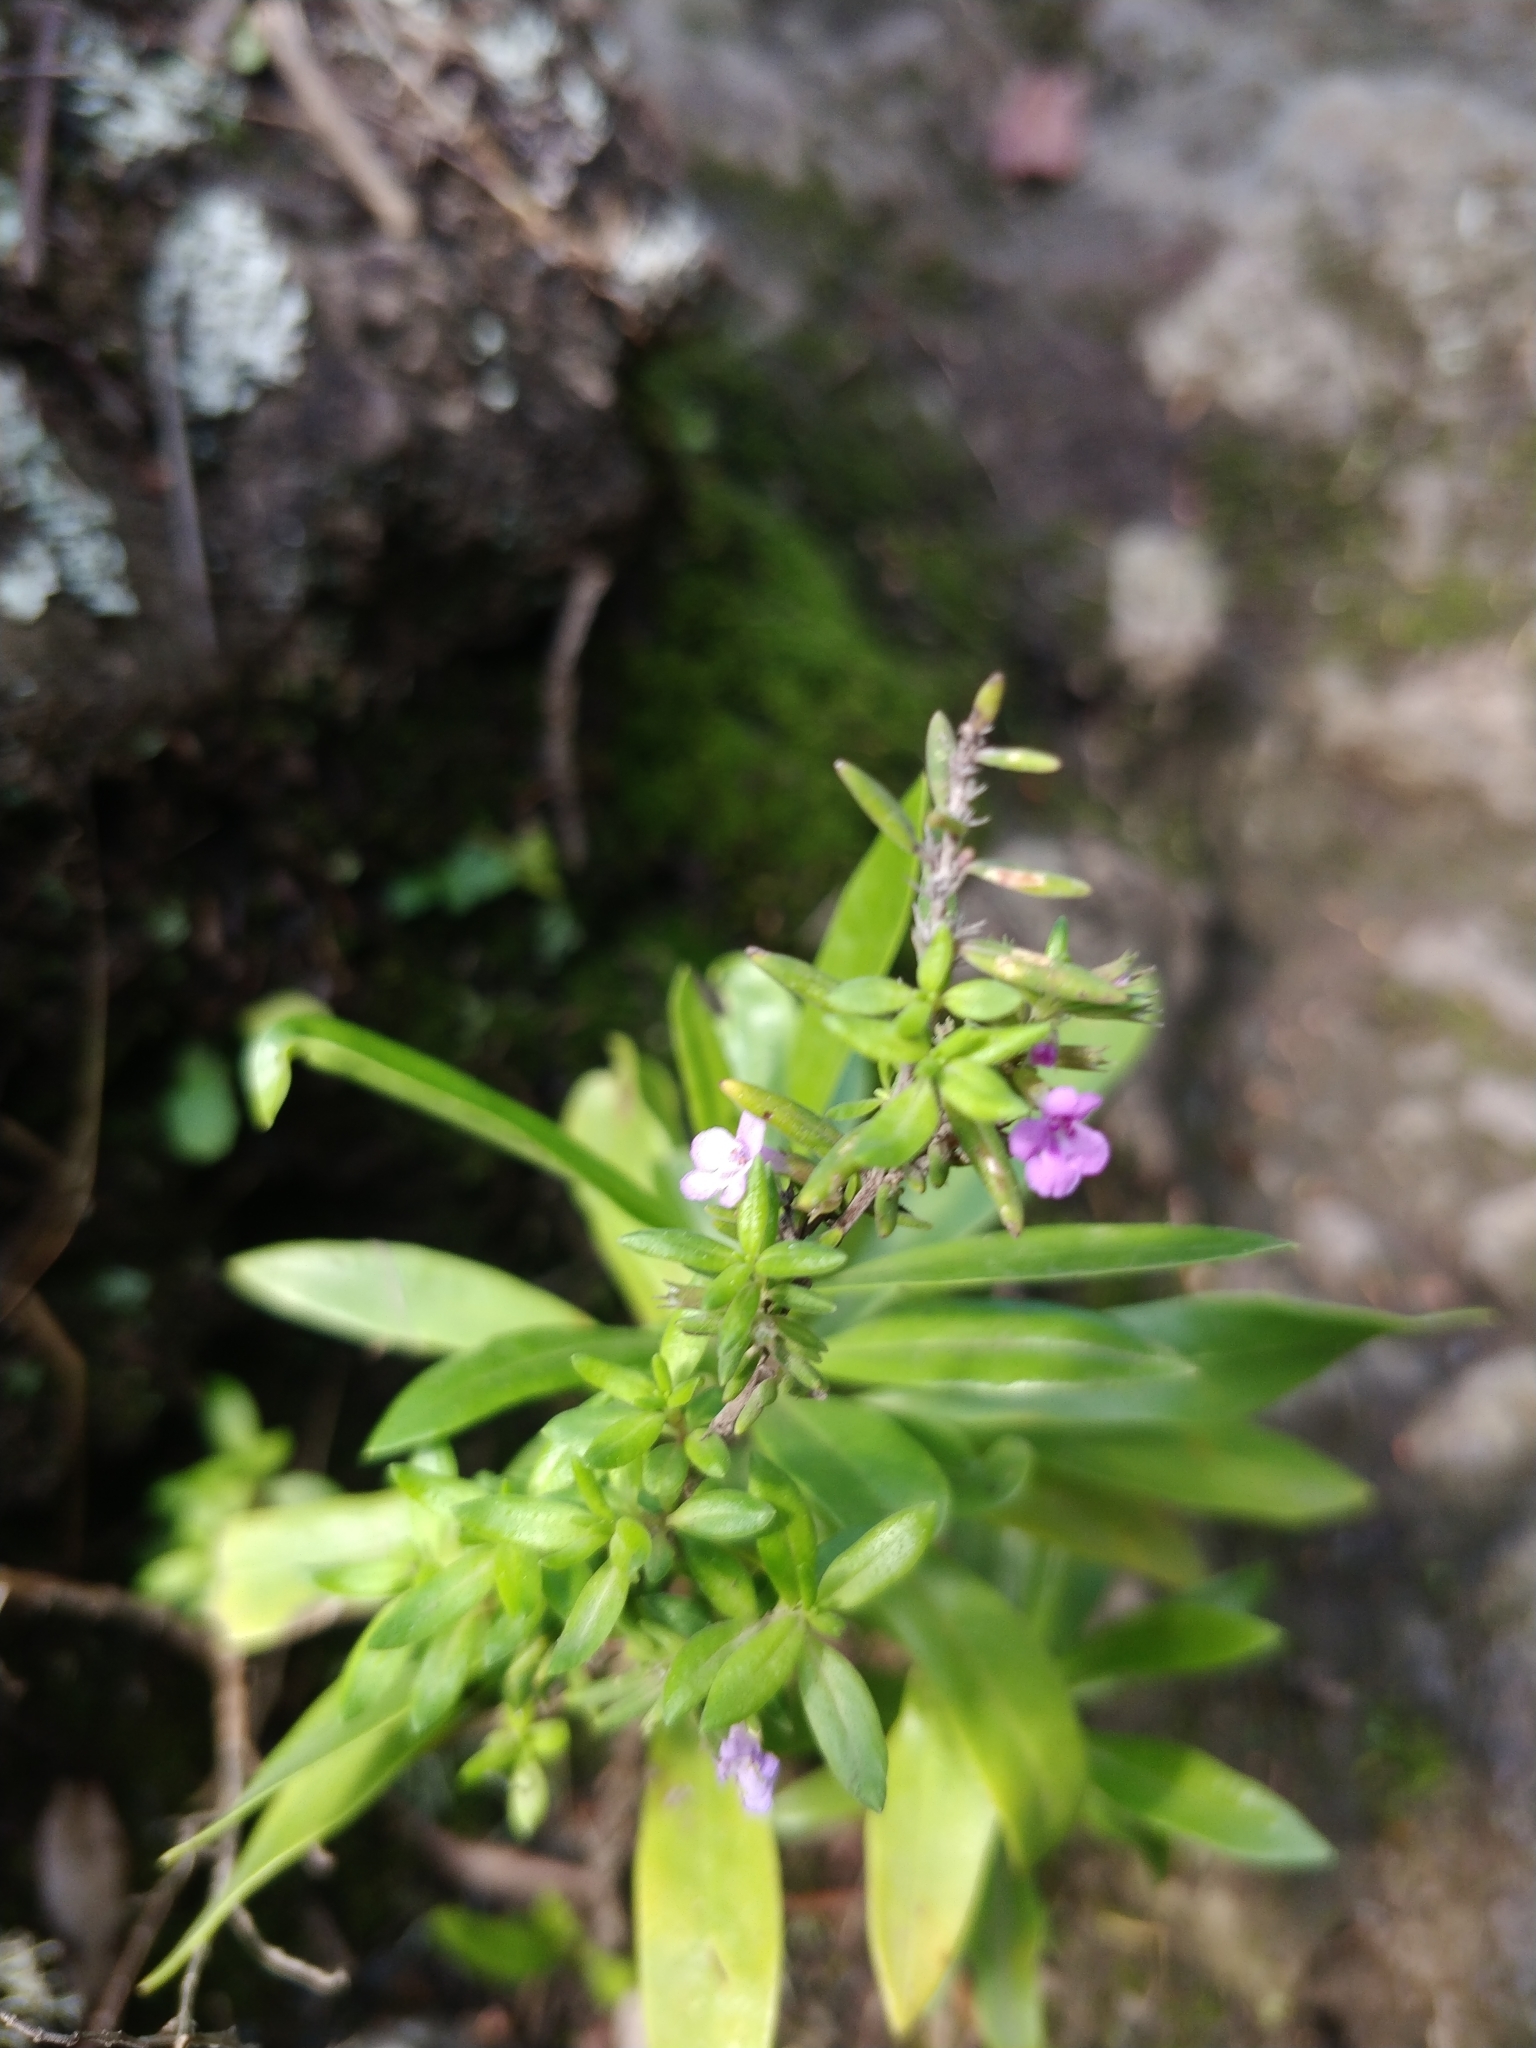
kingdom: Plantae
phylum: Tracheophyta
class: Magnoliopsida
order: Lamiales
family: Lamiaceae
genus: Micromeria
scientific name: Micromeria maderensis
